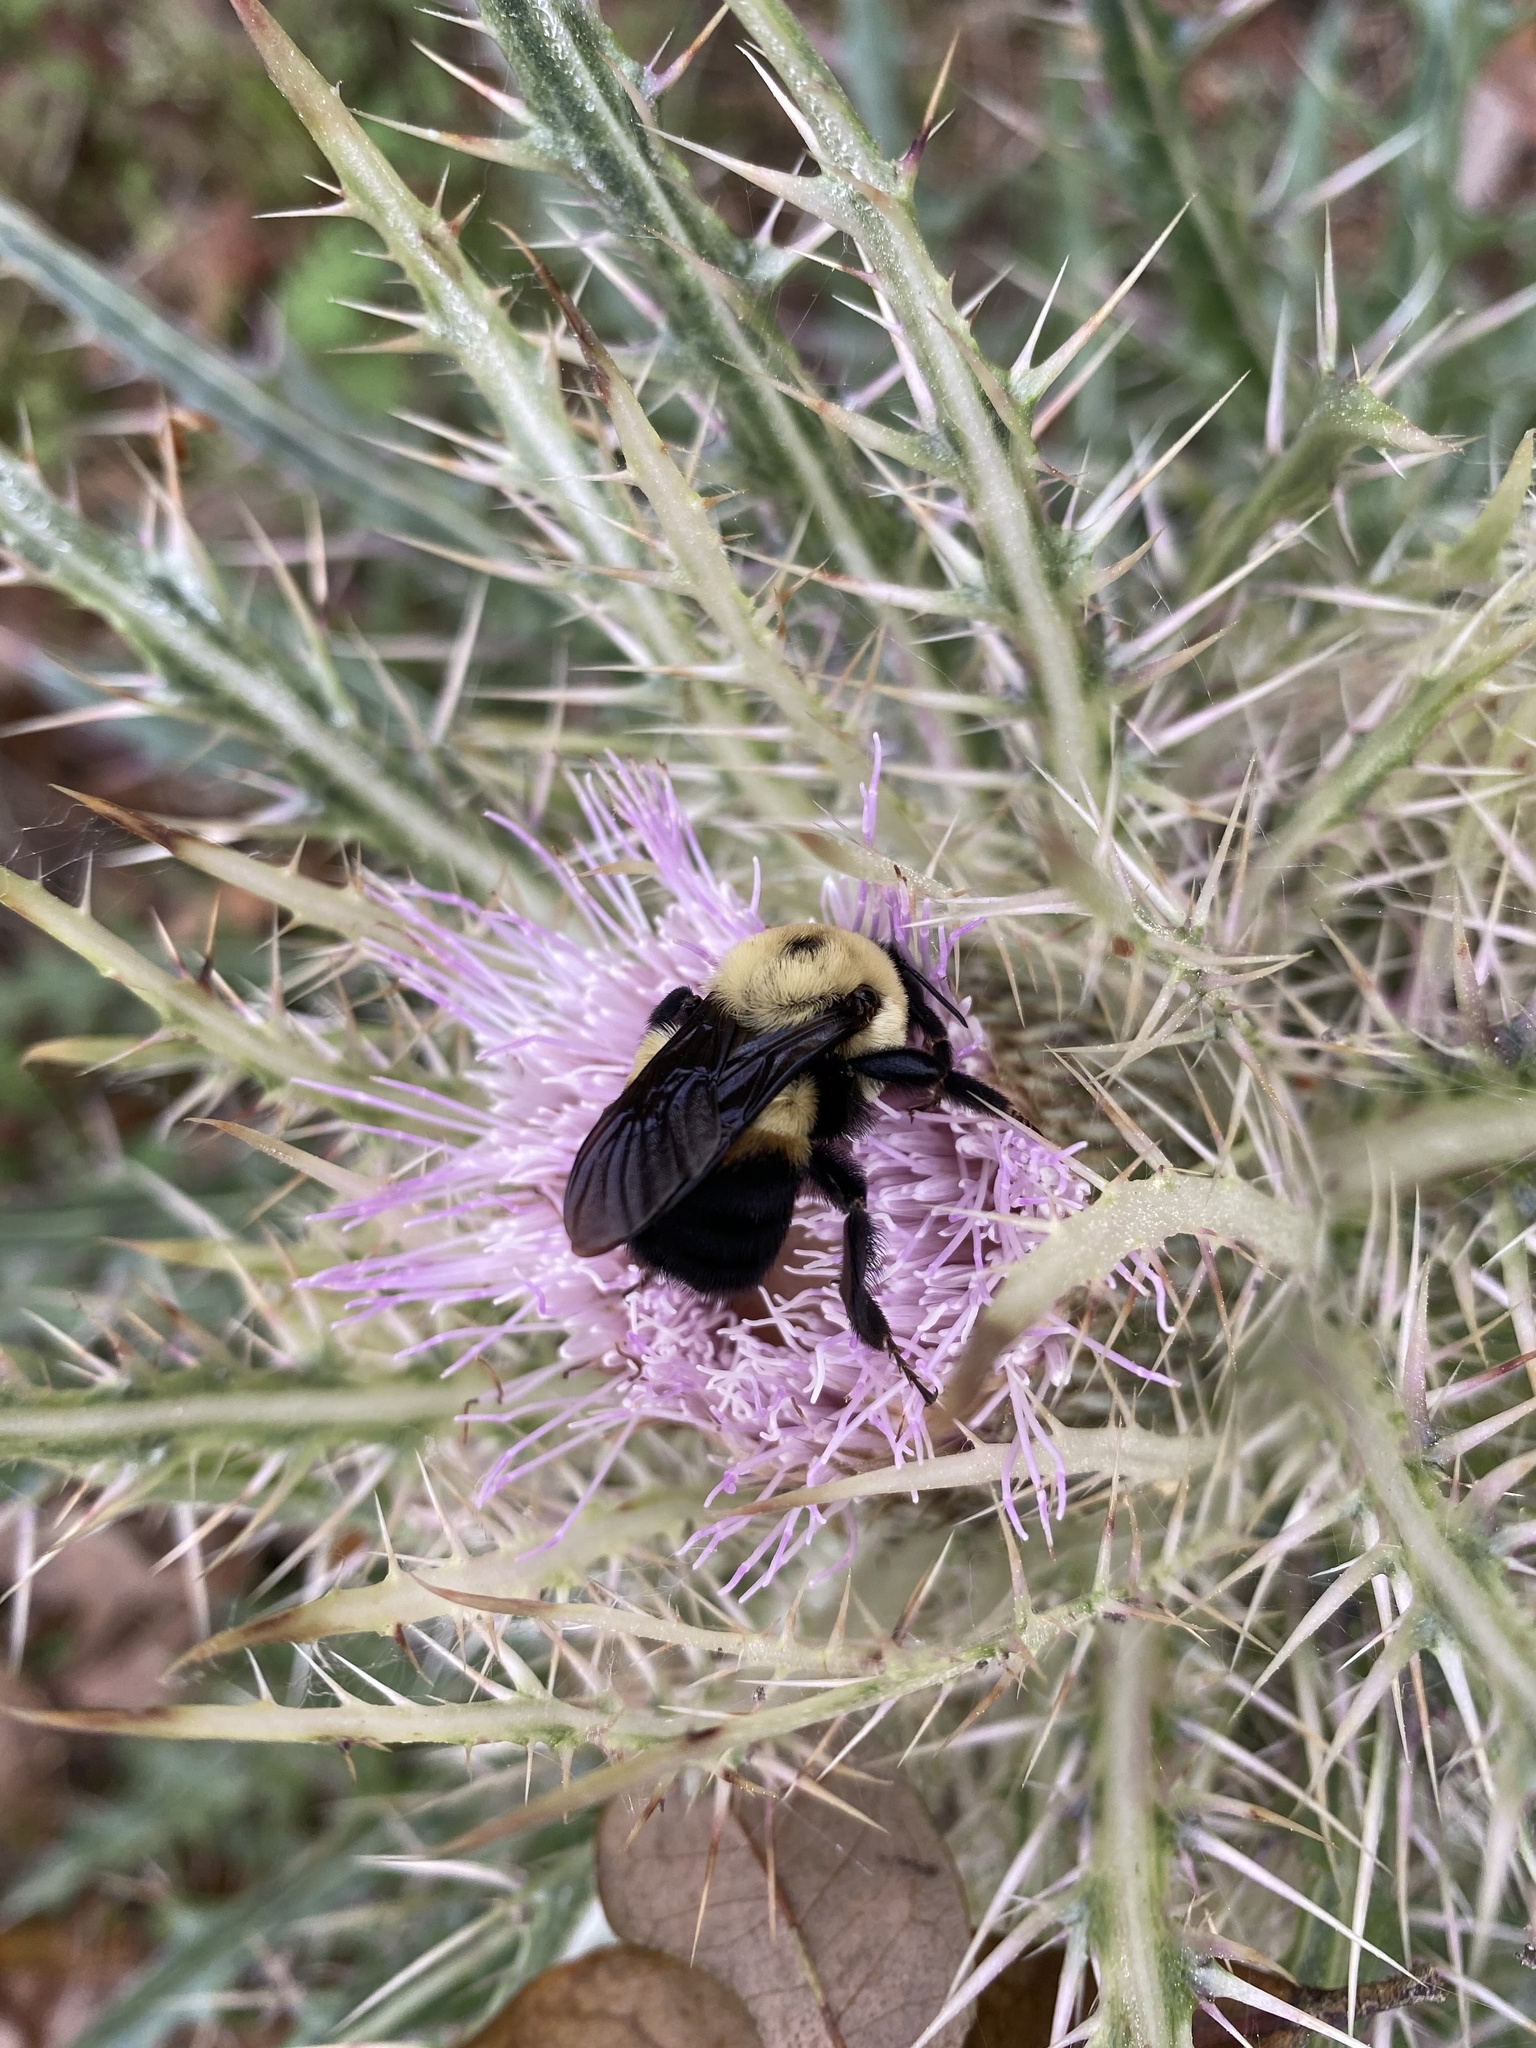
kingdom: Animalia
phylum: Arthropoda
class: Insecta
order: Hymenoptera
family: Apidae
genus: Bombus
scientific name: Bombus griseocollis
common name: Brown-belted bumble bee
